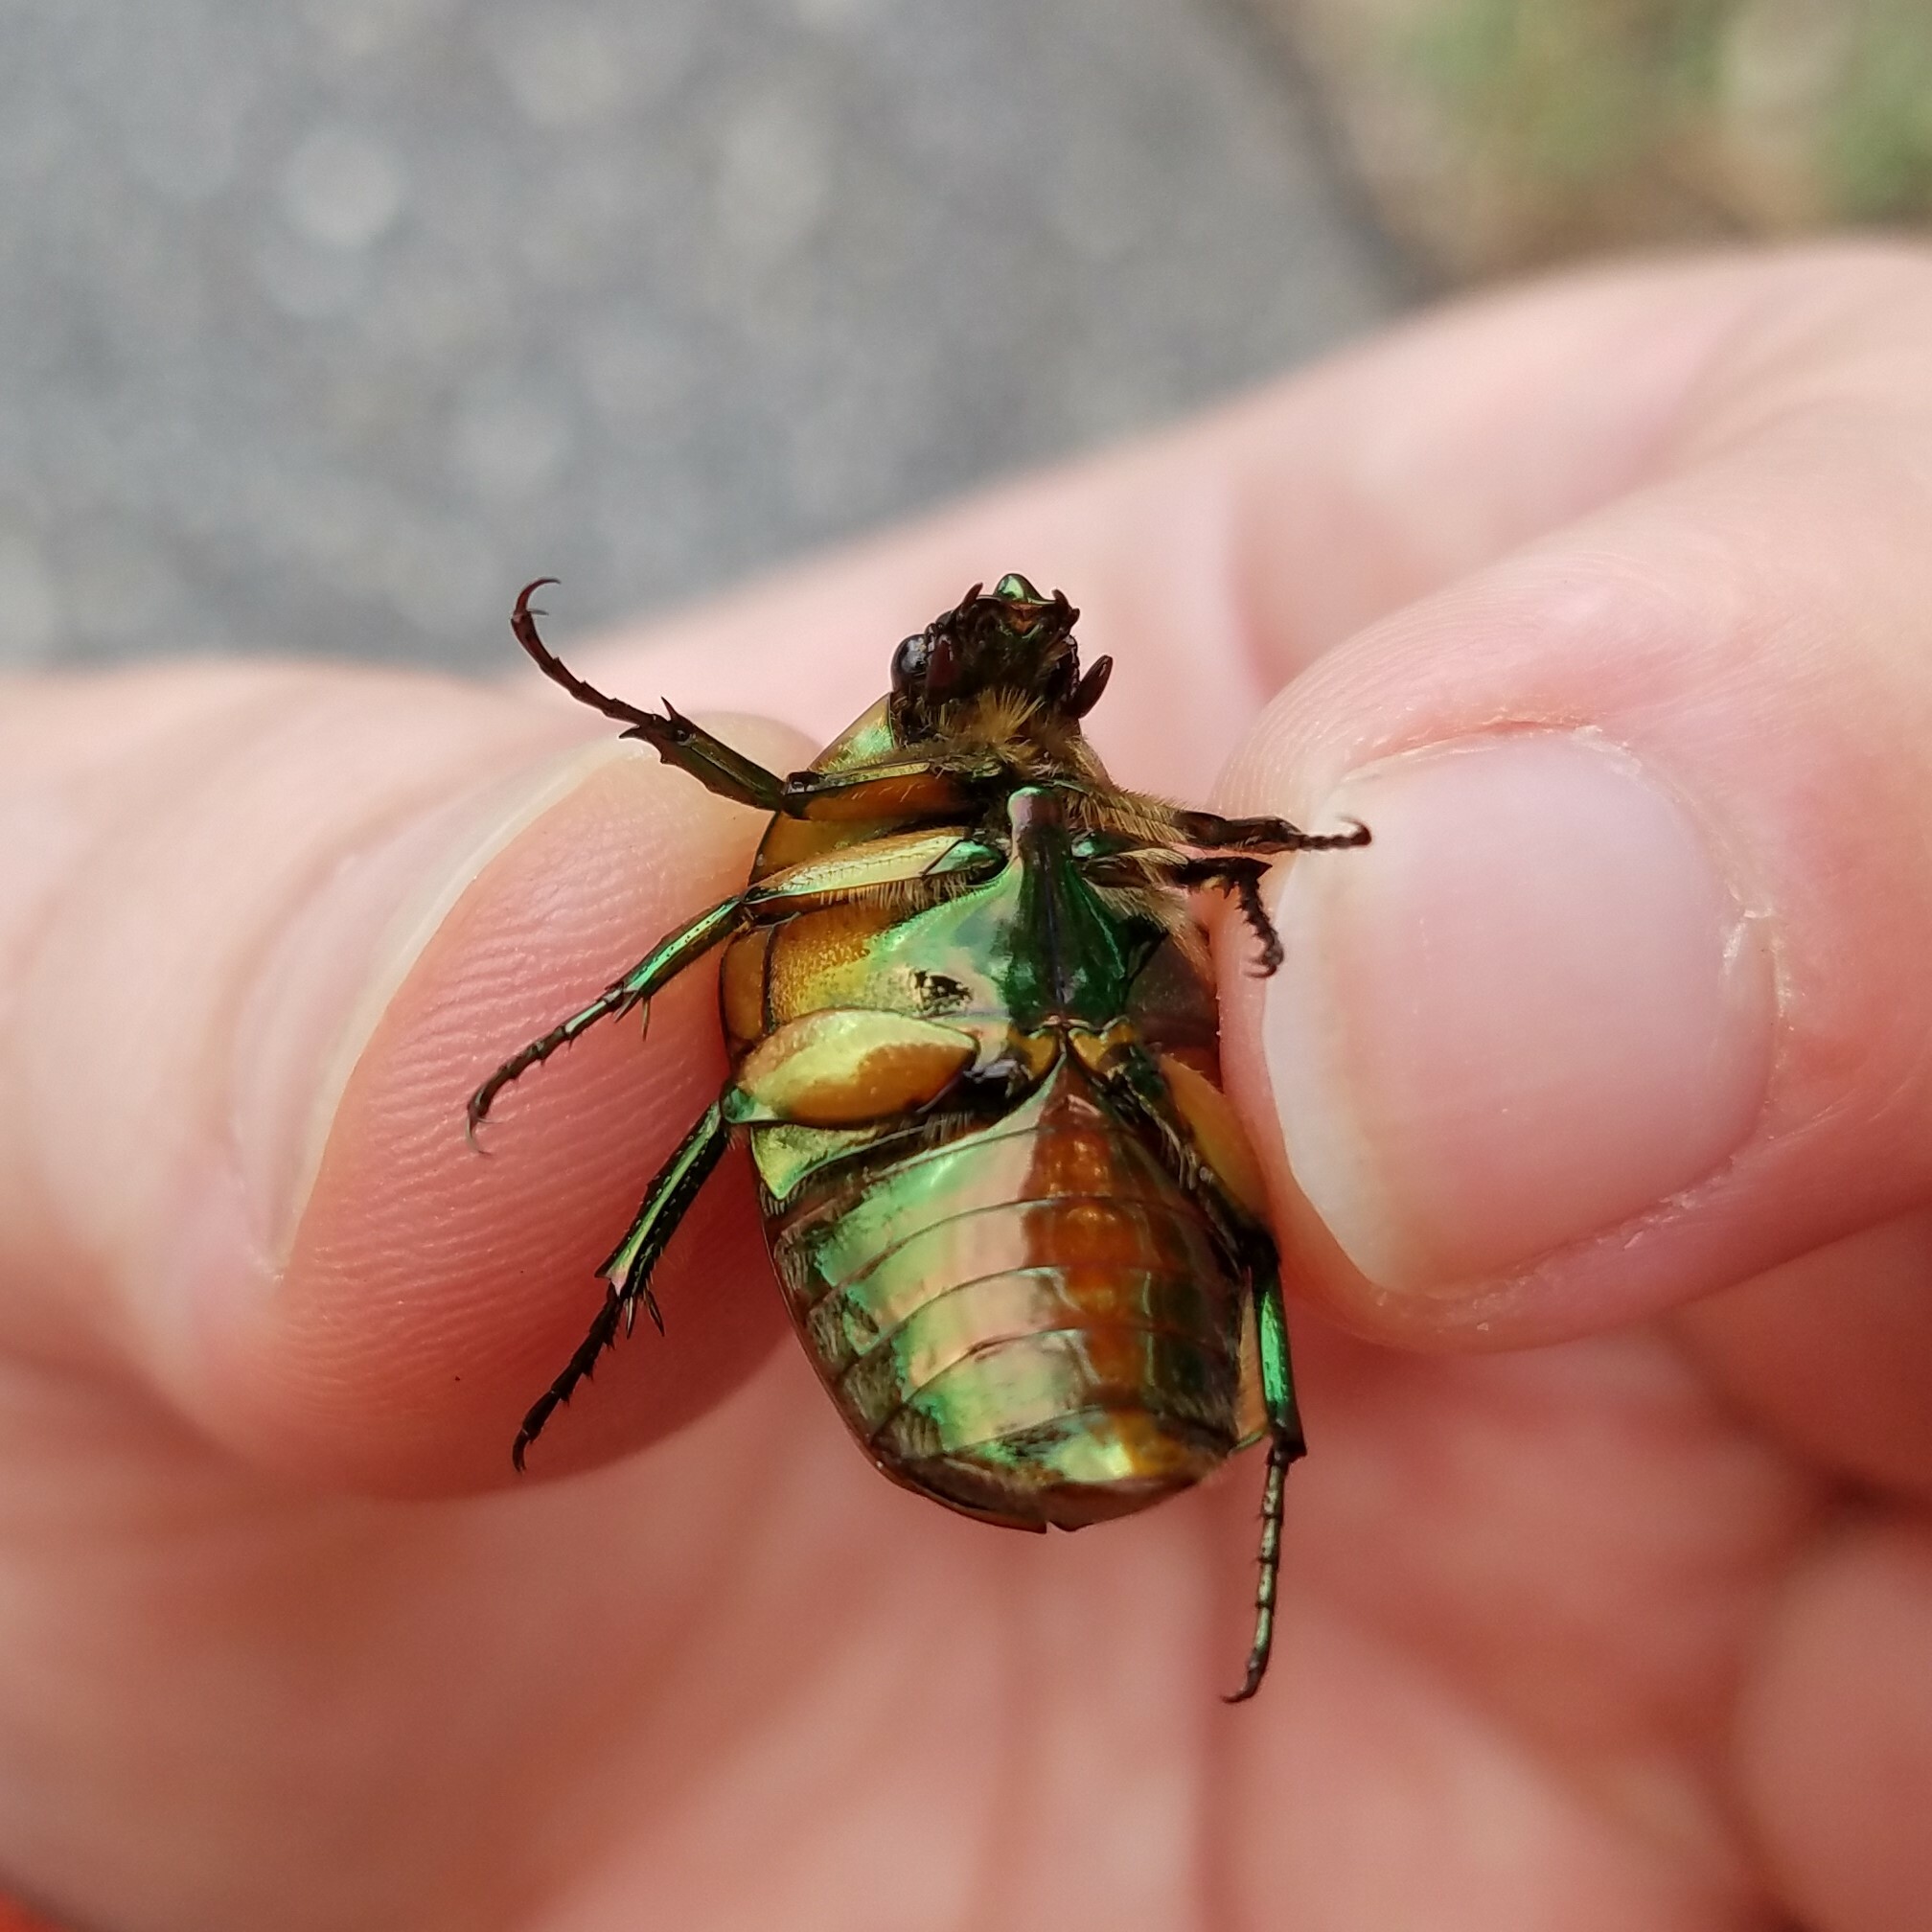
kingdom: Animalia
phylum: Arthropoda
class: Insecta
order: Coleoptera
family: Scarabaeidae
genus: Cotinis
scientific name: Cotinis nitida
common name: Common green june beetle
